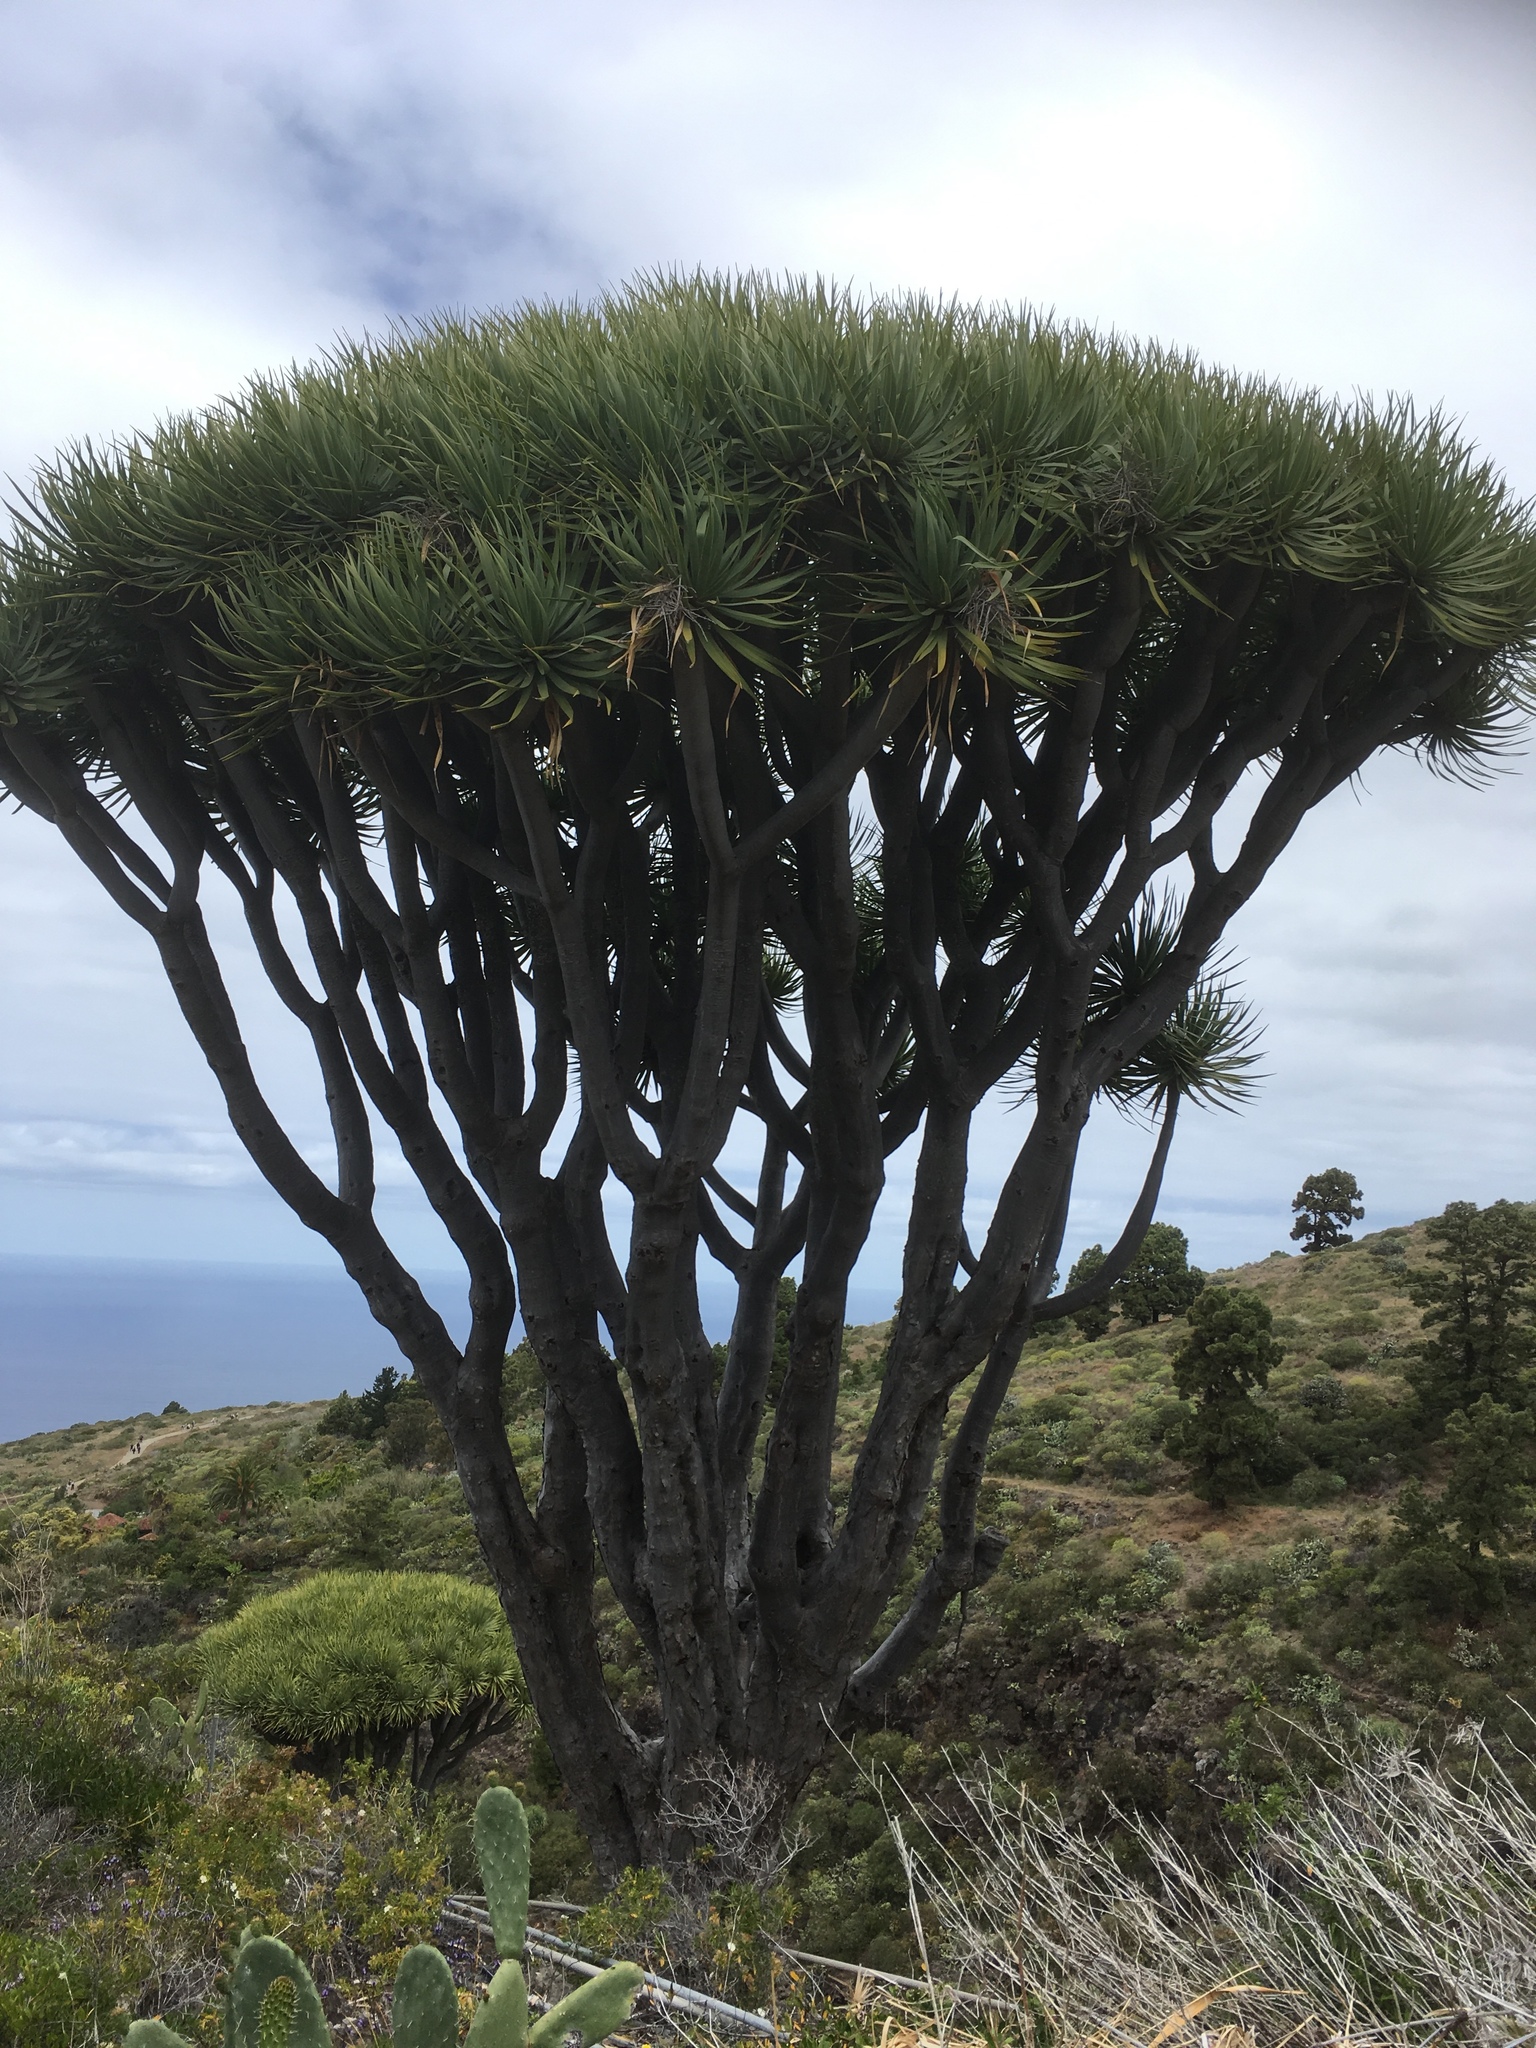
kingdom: Plantae
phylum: Tracheophyta
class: Liliopsida
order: Asparagales
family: Asparagaceae
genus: Dracaena
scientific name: Dracaena draco
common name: Canary island dragon tree
